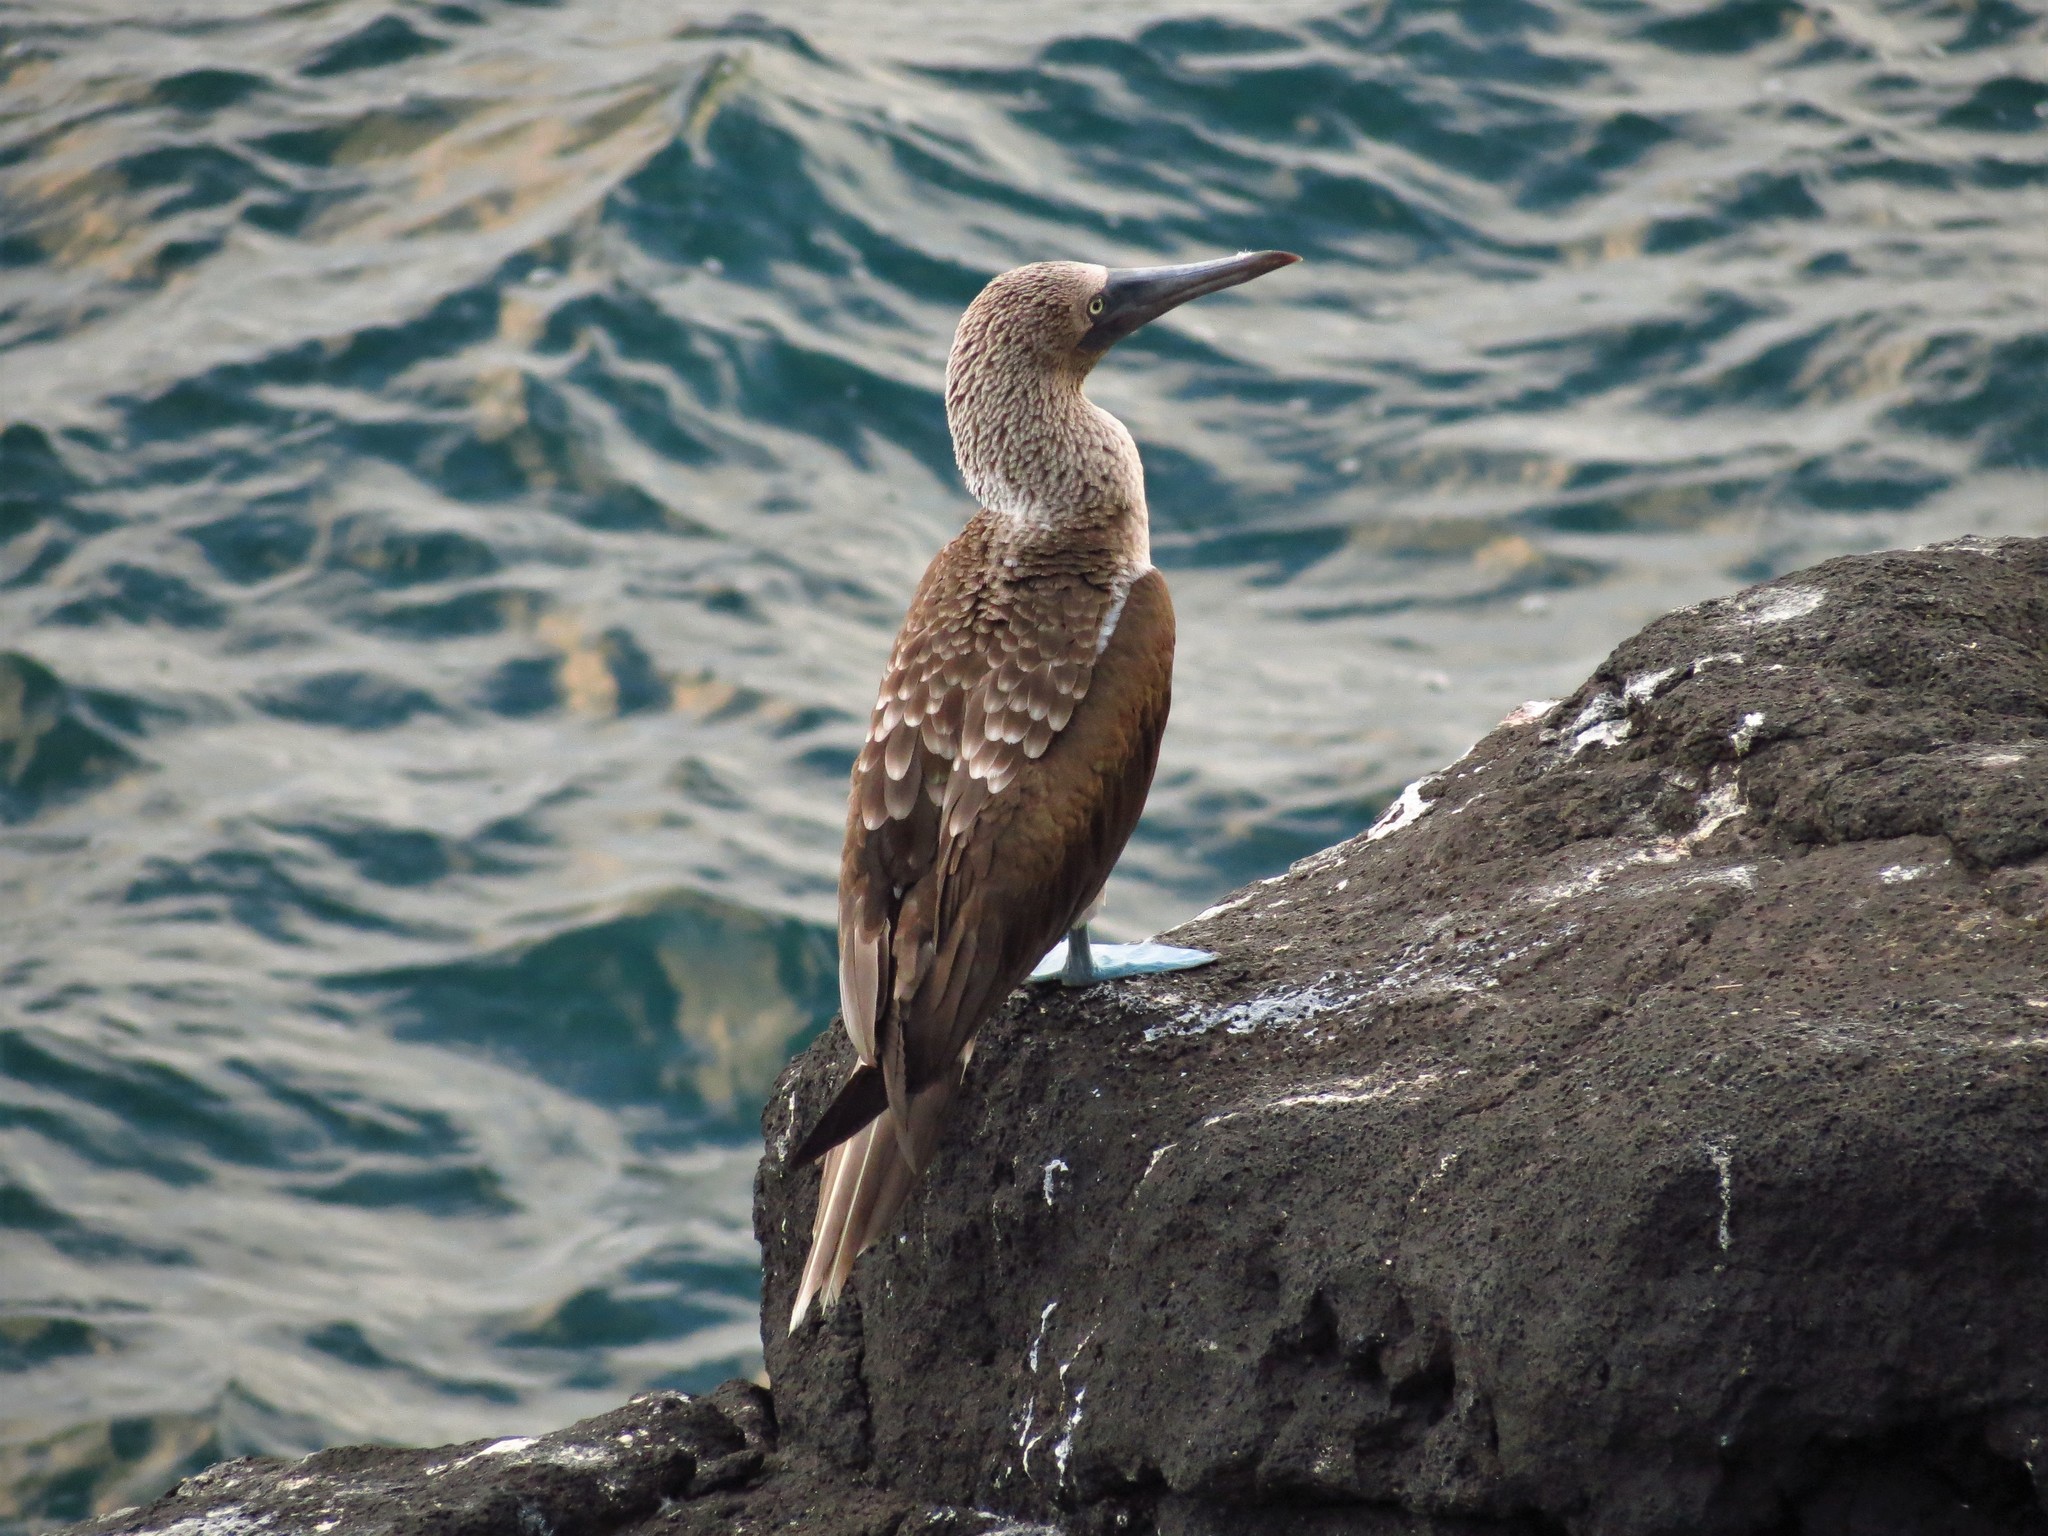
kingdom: Animalia
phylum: Chordata
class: Aves
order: Suliformes
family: Sulidae
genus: Sula
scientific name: Sula nebouxii
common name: Blue-footed booby
